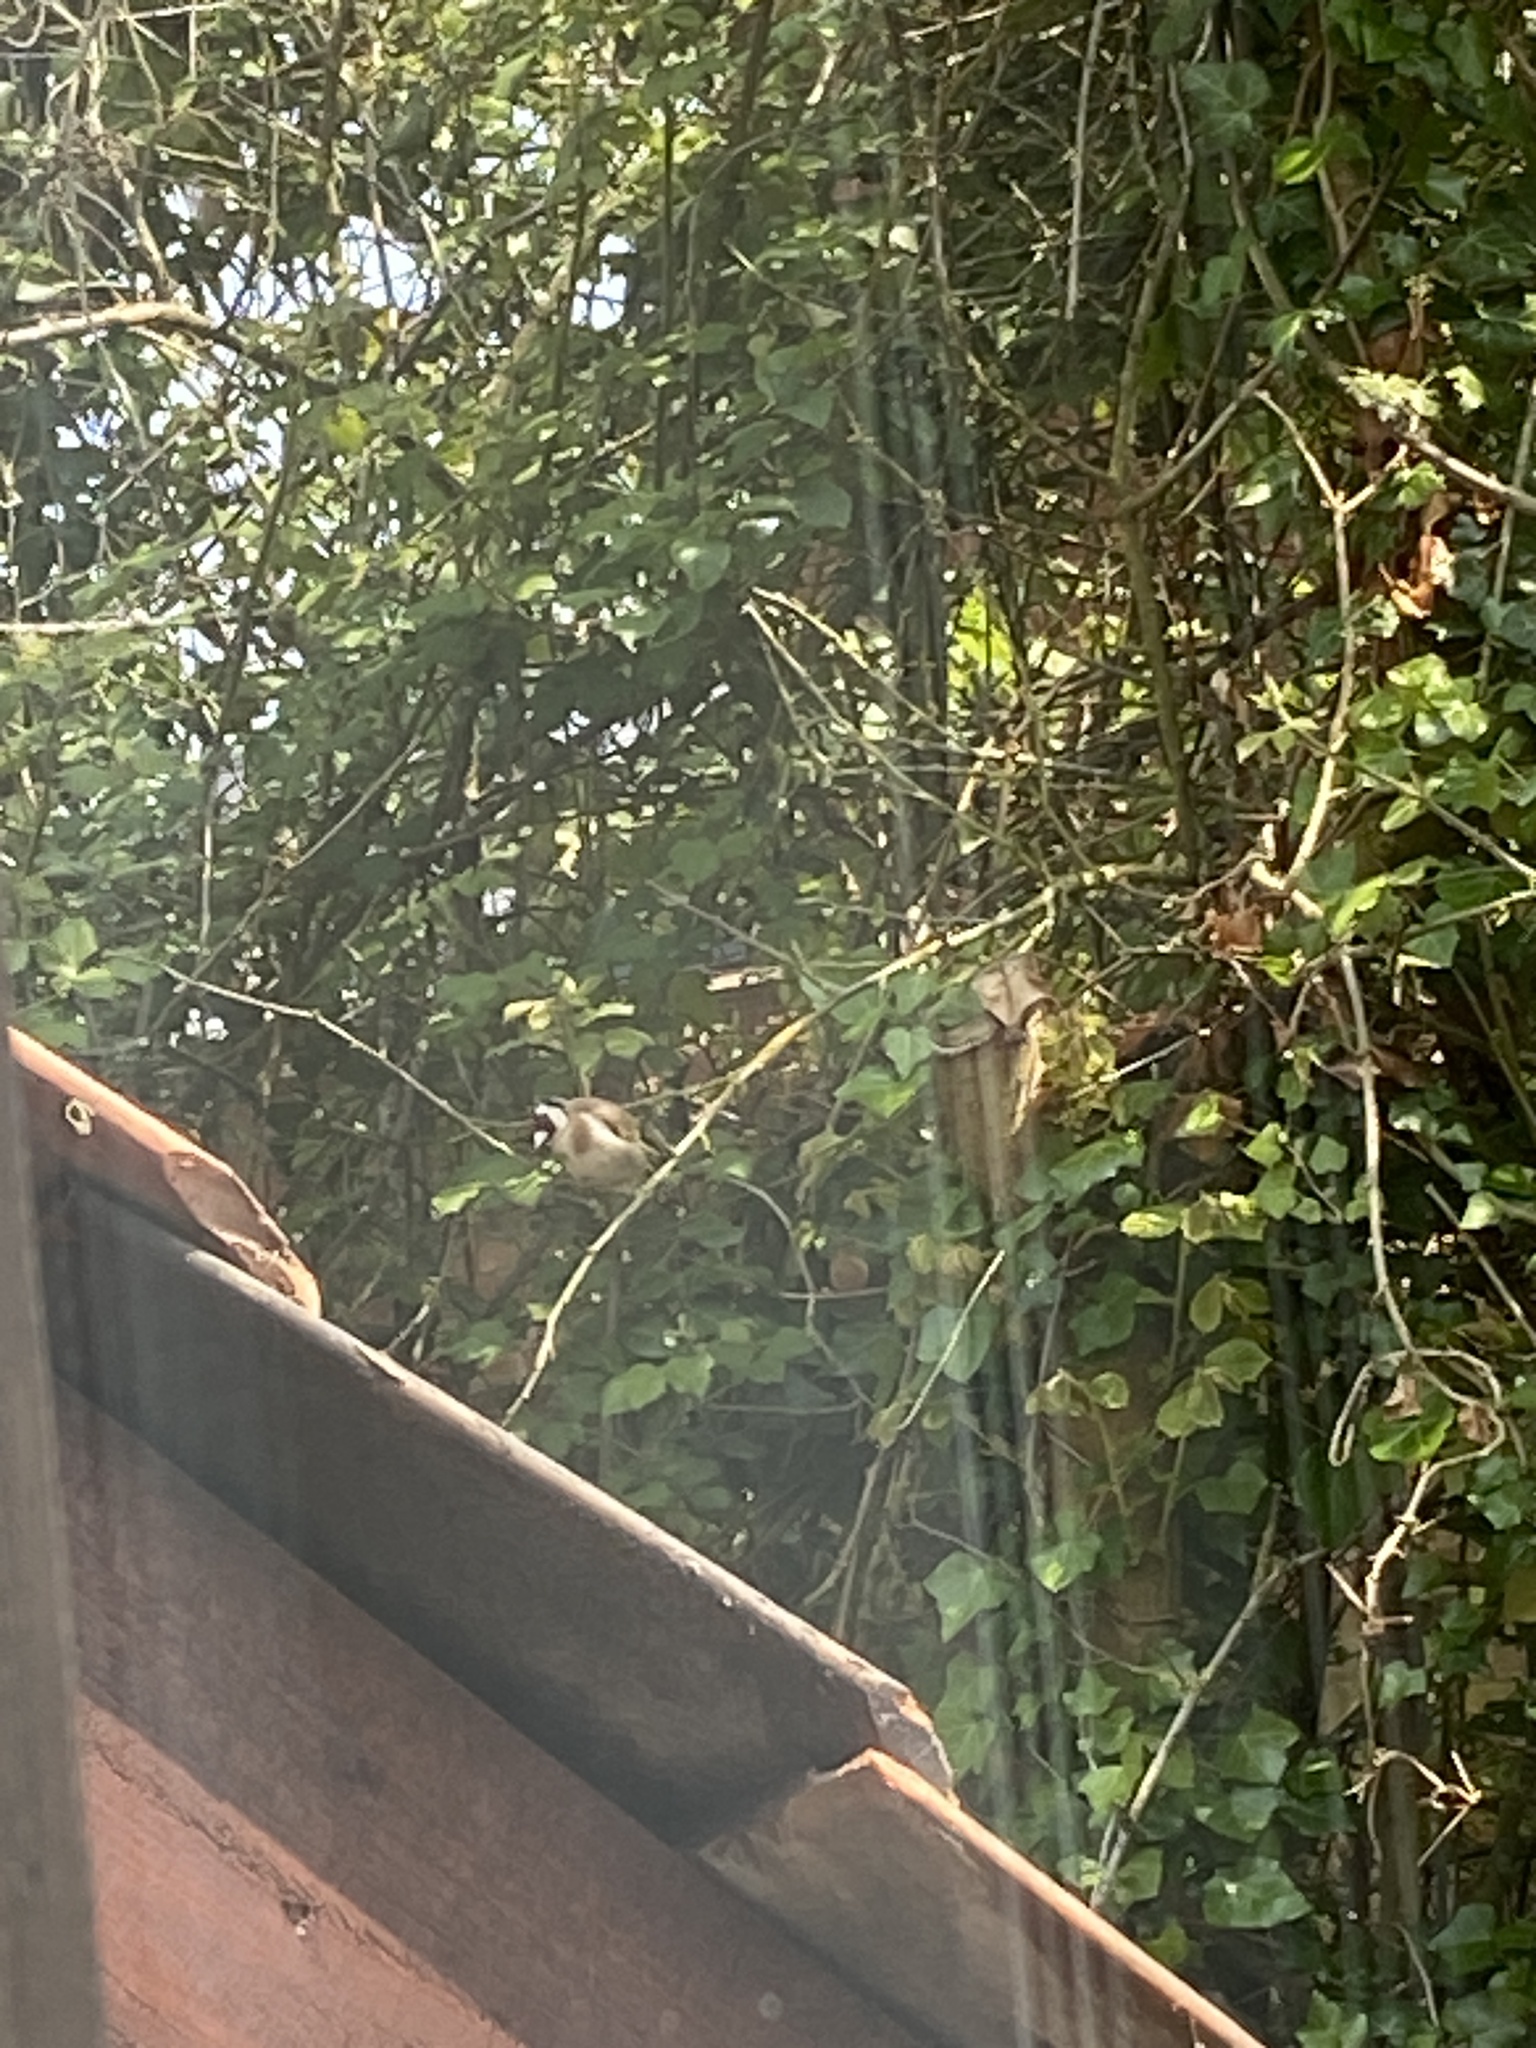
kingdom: Animalia
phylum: Chordata
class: Aves
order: Passeriformes
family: Fringillidae
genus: Carduelis
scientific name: Carduelis carduelis
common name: European goldfinch
